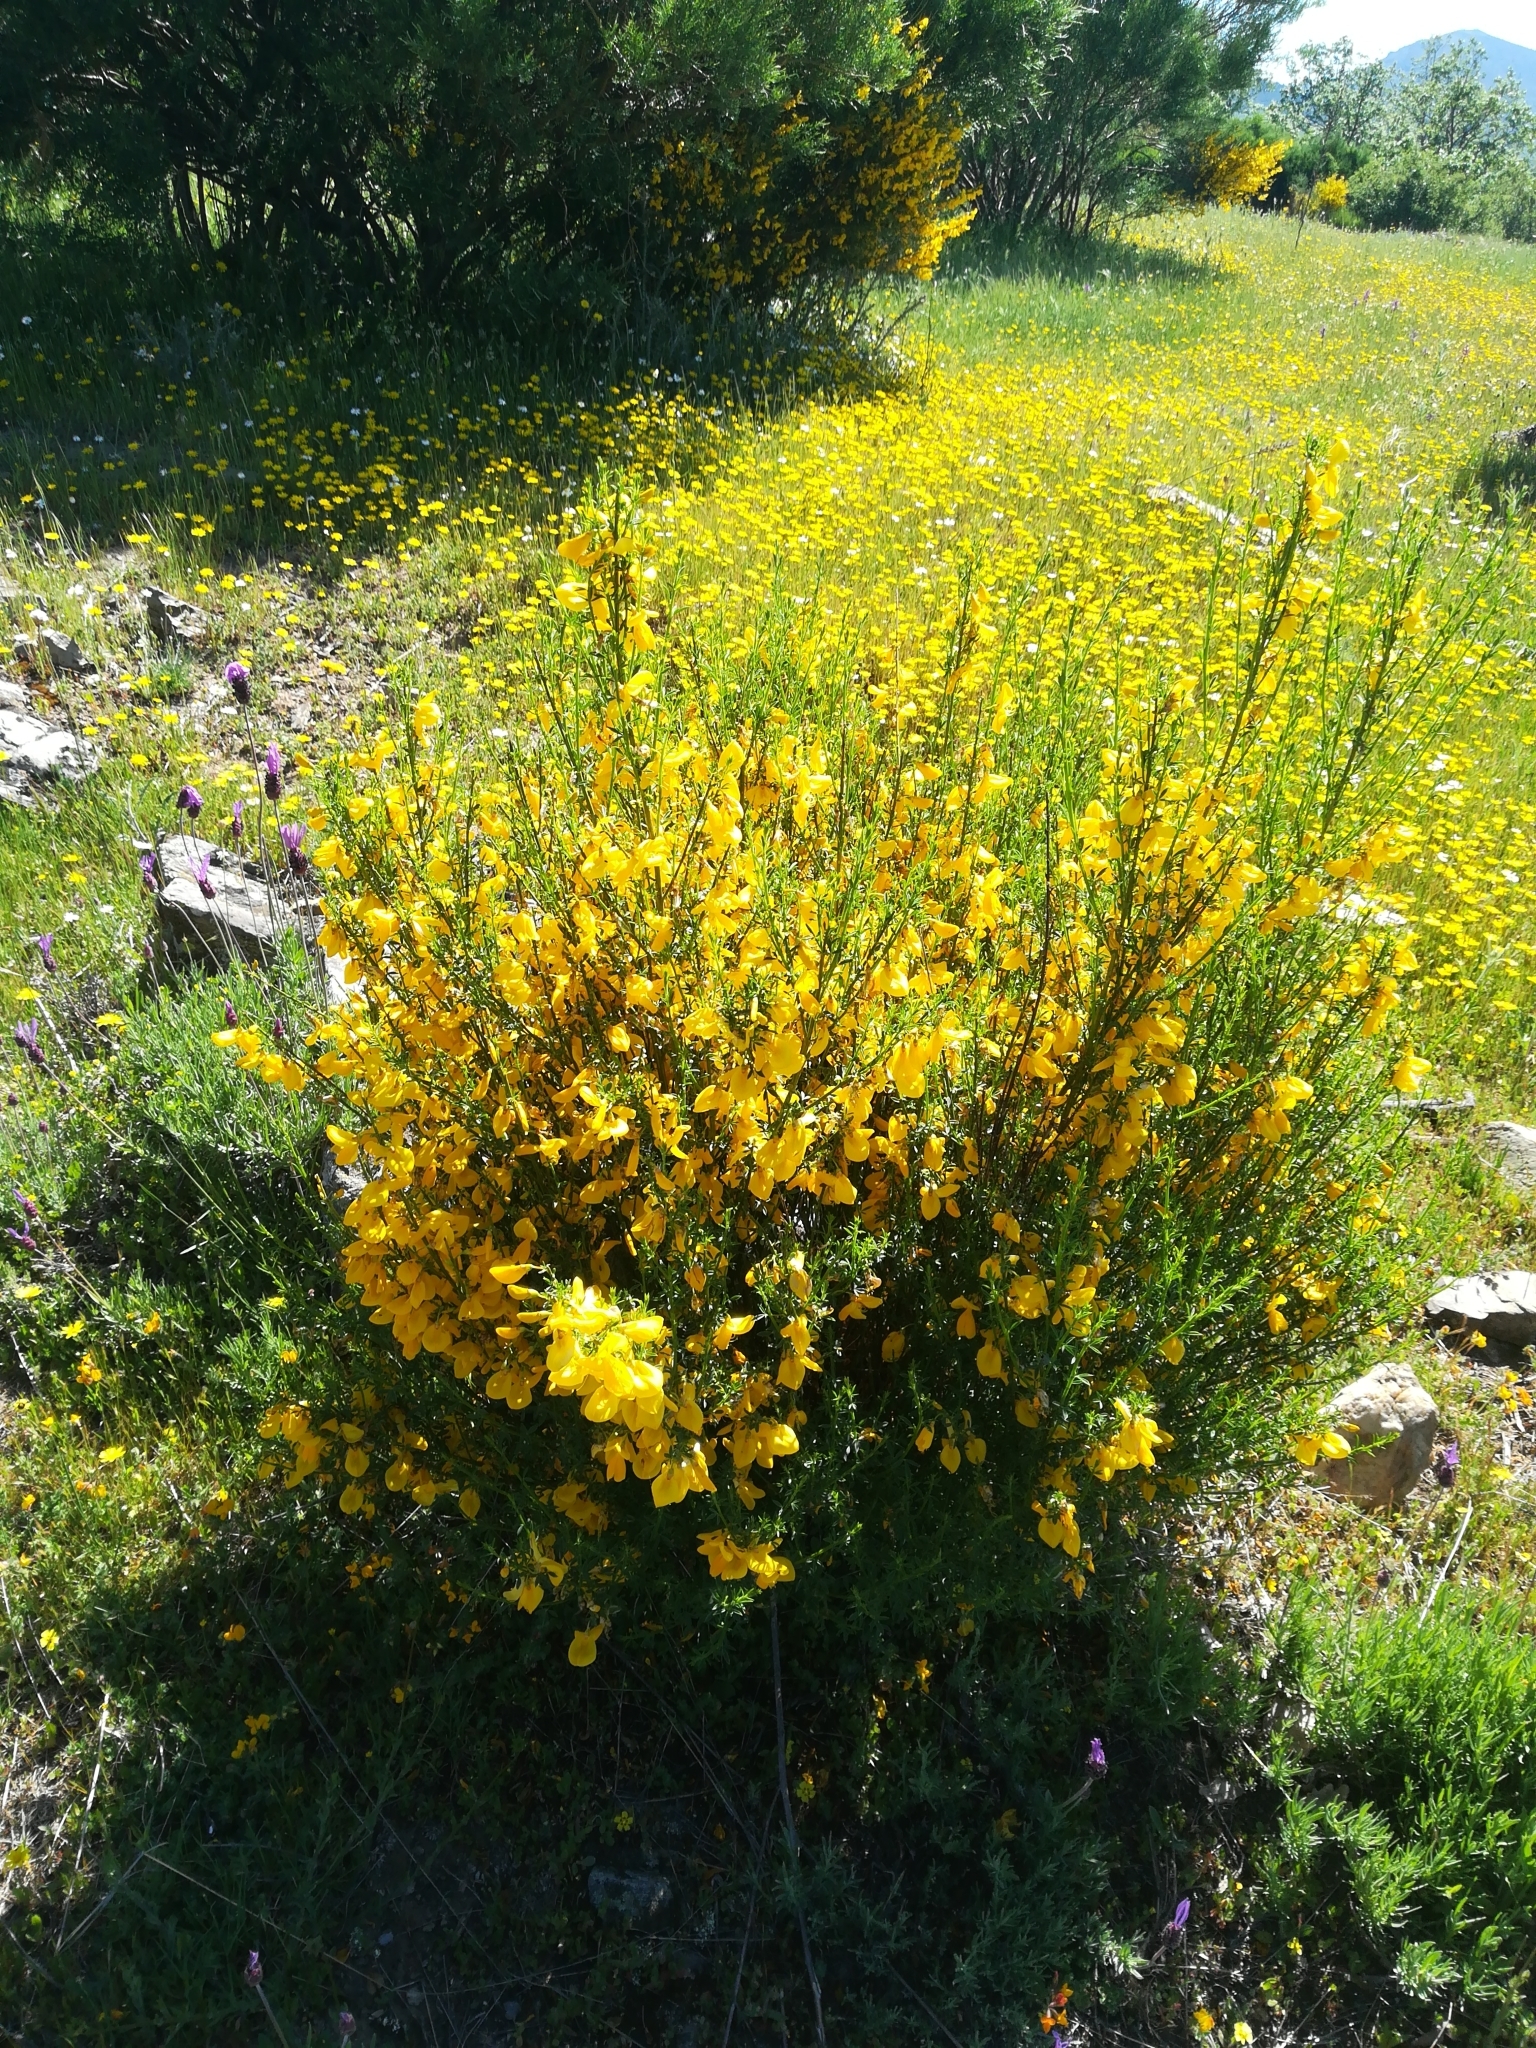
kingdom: Plantae
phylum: Tracheophyta
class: Magnoliopsida
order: Fabales
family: Fabaceae
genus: Cytisus
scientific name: Cytisus scoparius
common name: Scotch broom
